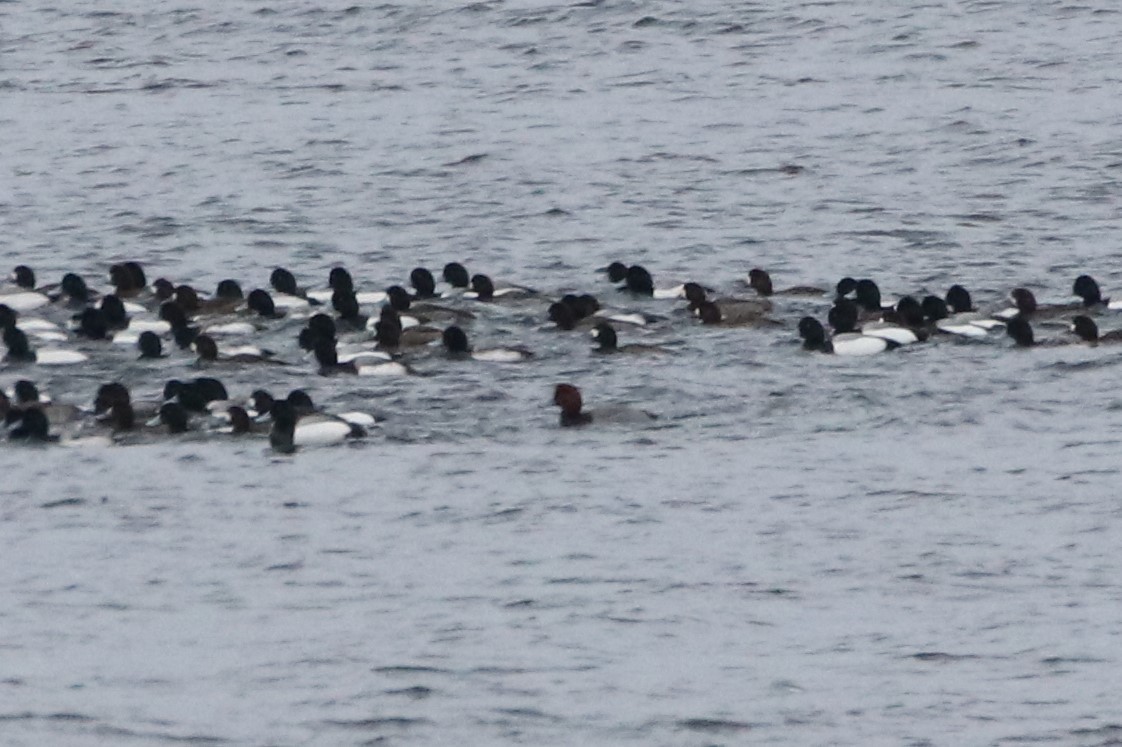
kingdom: Animalia
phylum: Chordata
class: Aves
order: Anseriformes
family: Anatidae
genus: Aythya
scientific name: Aythya americana
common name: Redhead
